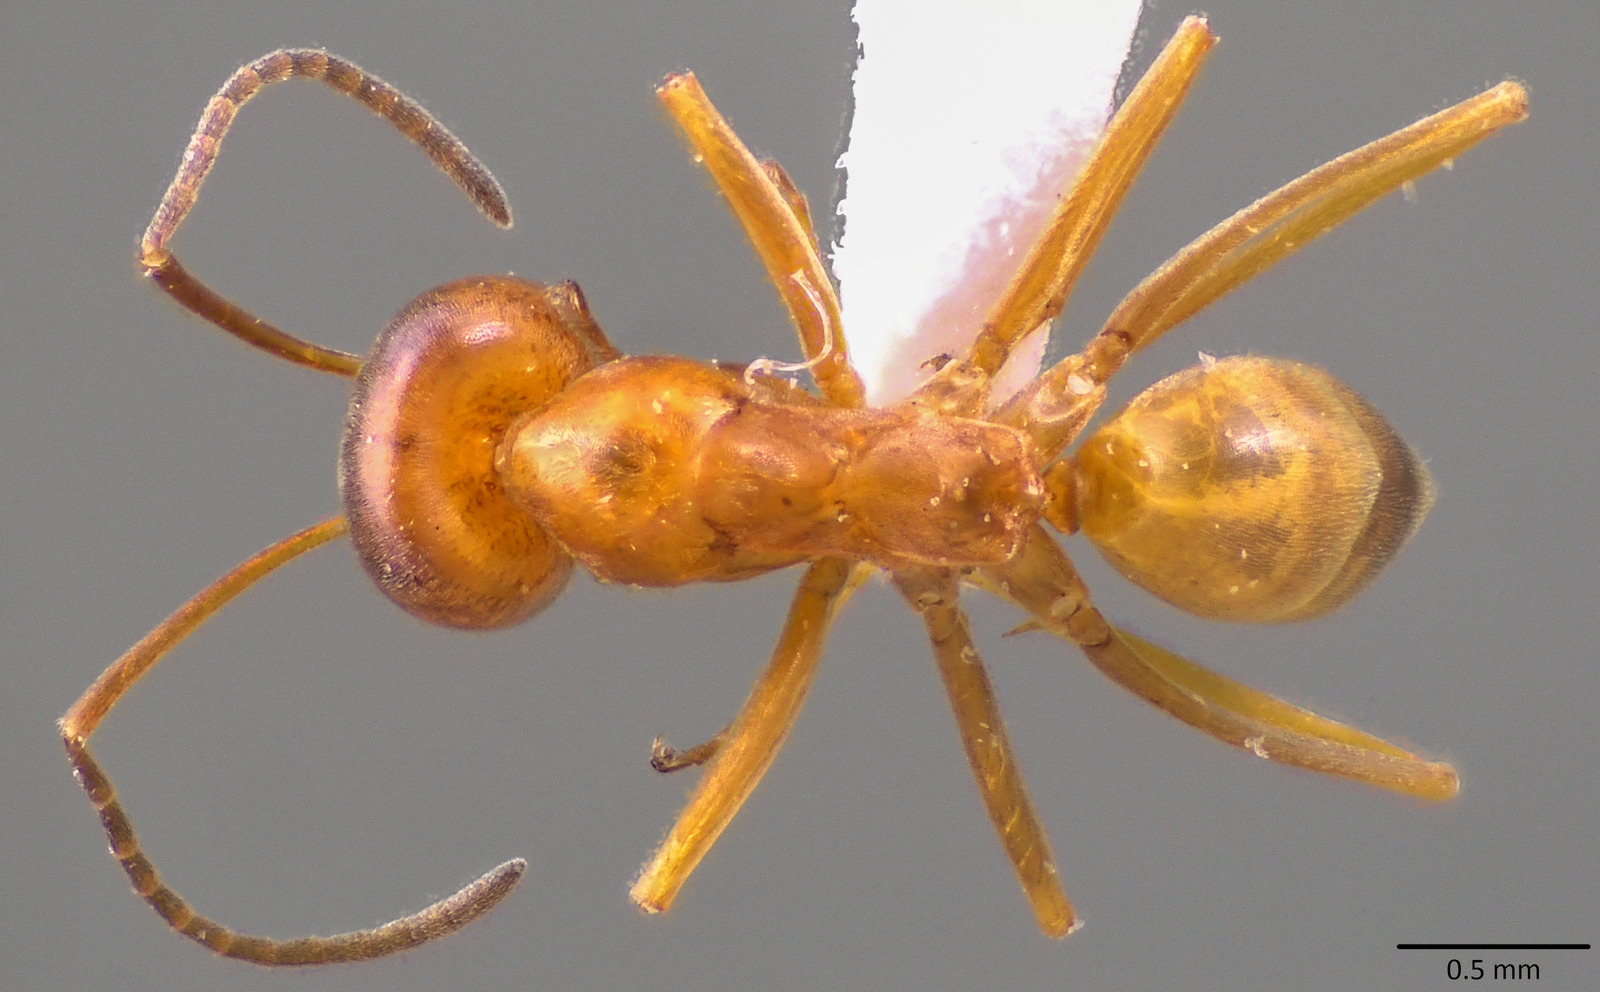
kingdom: Animalia
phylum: Arthropoda
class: Insecta
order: Hymenoptera
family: Formicidae
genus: Dorymyrmex
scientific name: Dorymyrmex bureni
